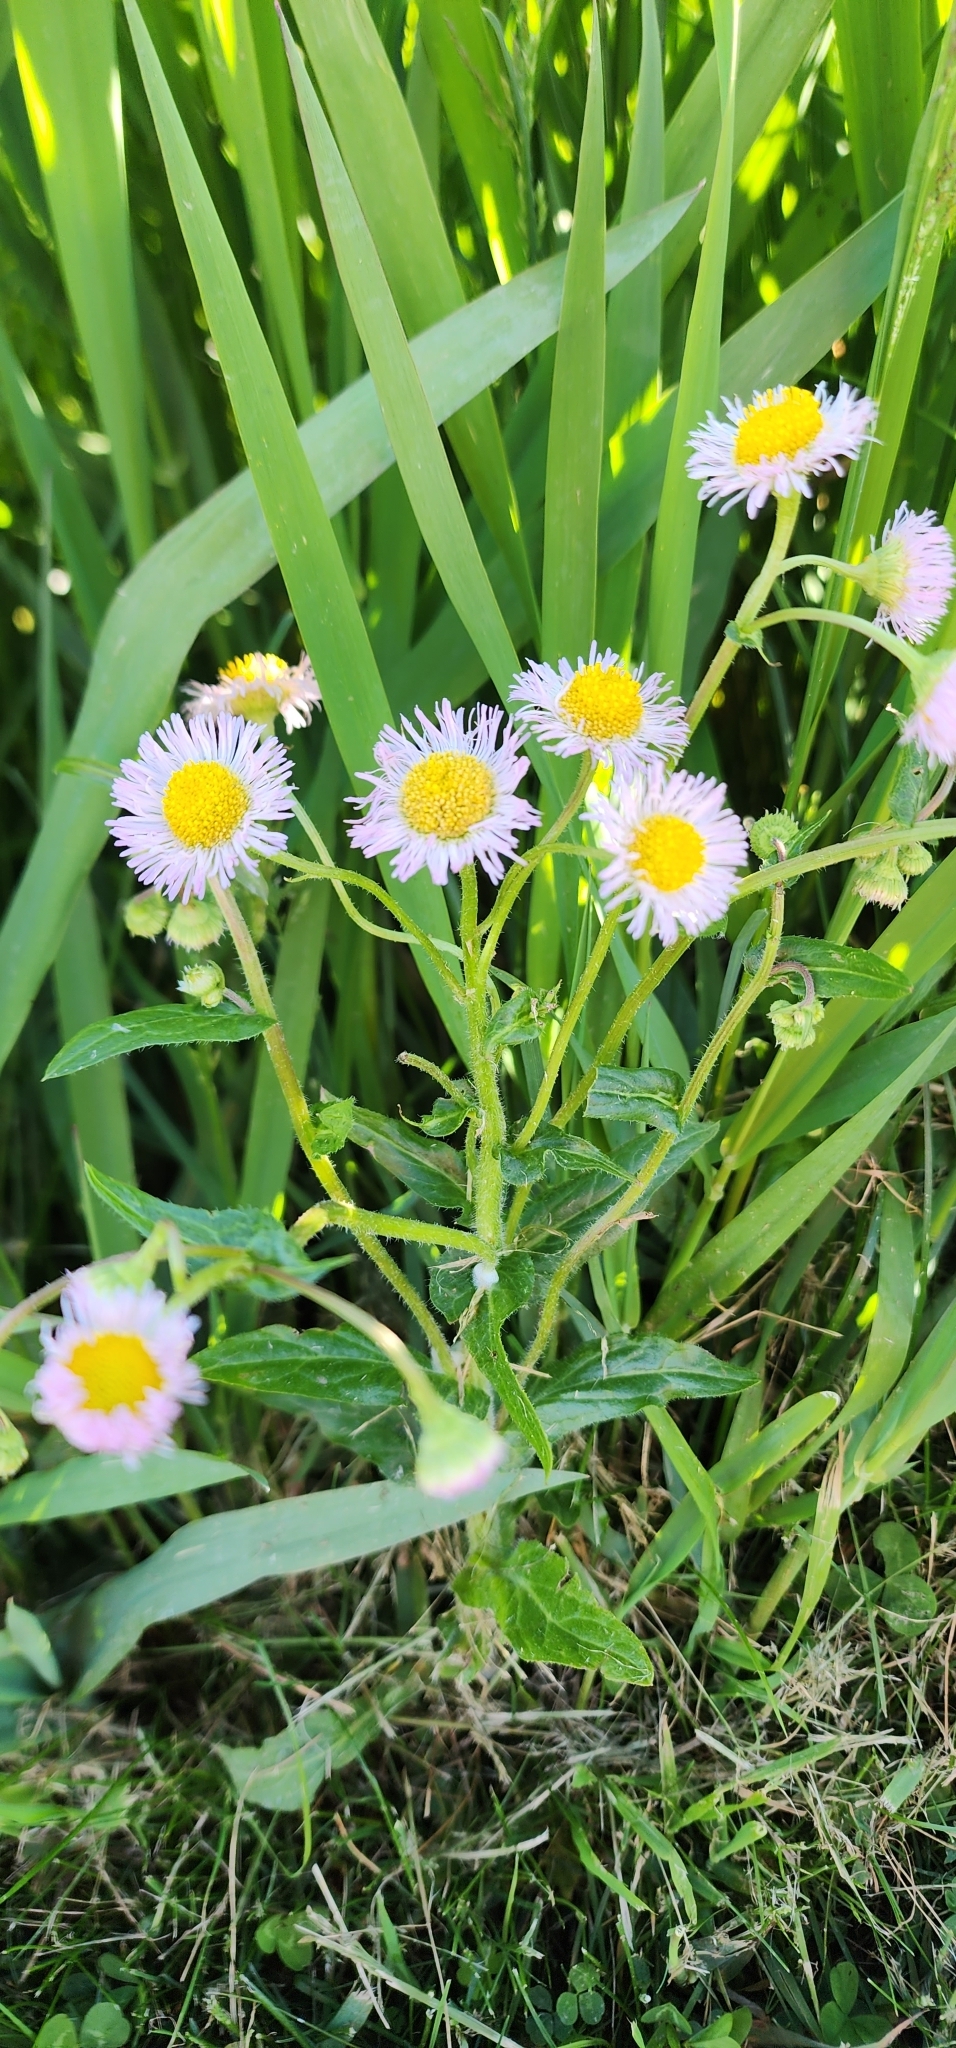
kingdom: Plantae
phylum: Tracheophyta
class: Magnoliopsida
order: Asterales
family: Asteraceae
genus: Erigeron
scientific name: Erigeron philadelphicus
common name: Robin's-plantain
